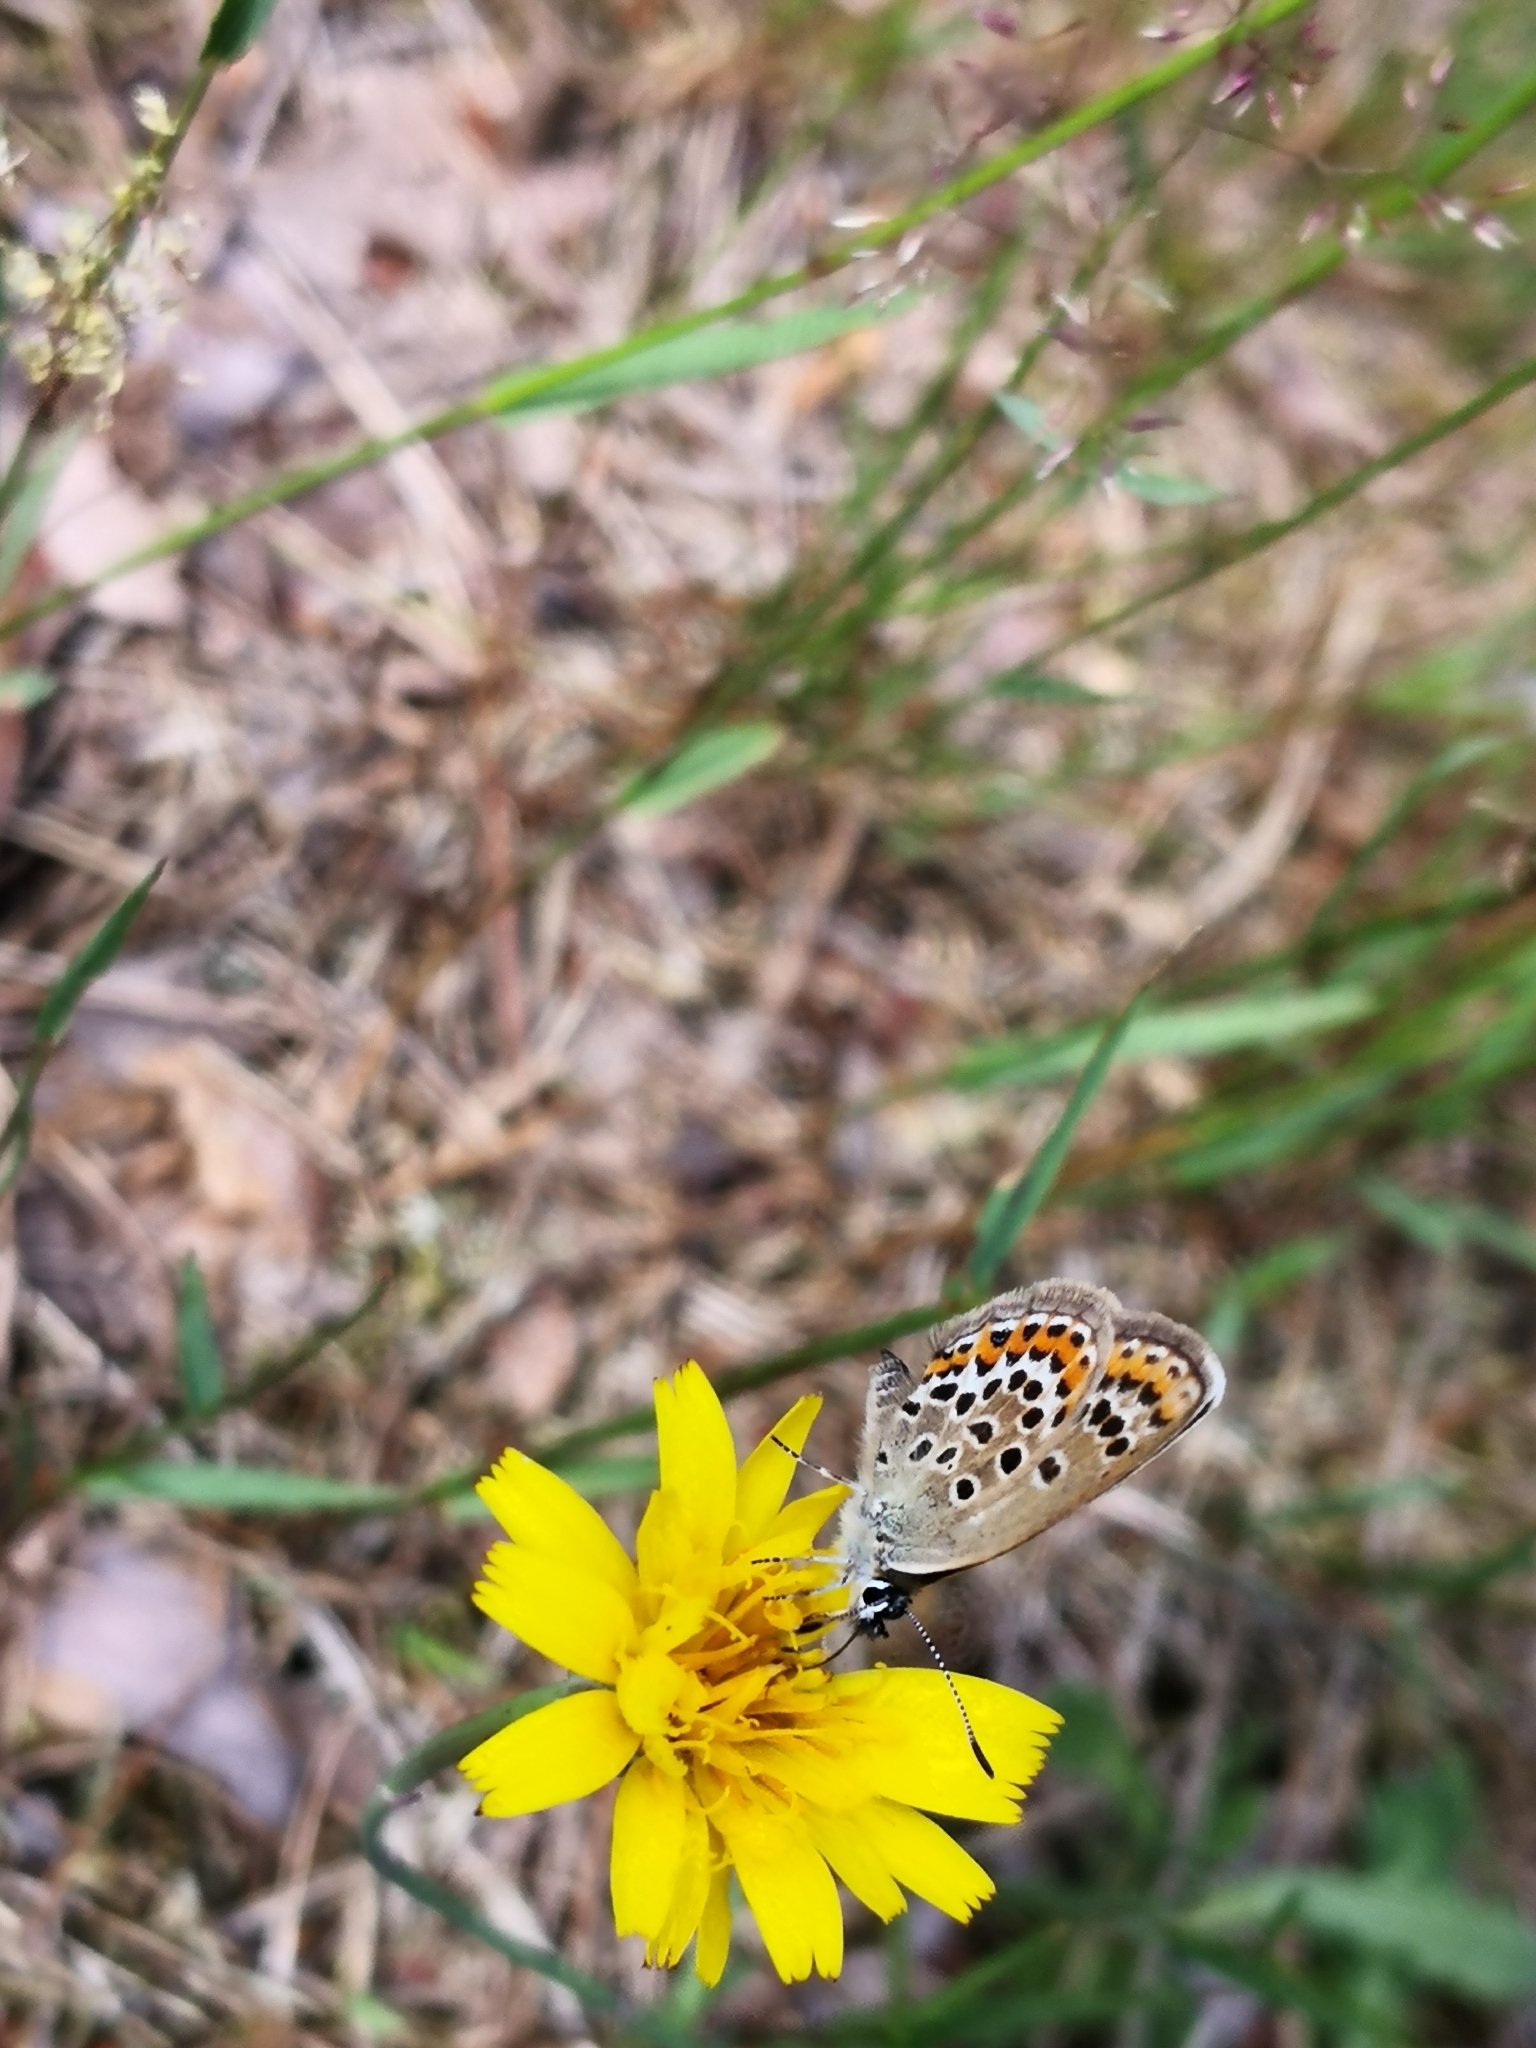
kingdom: Animalia
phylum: Arthropoda
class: Insecta
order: Lepidoptera
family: Lycaenidae
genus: Plebejus
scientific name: Plebejus argus
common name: Silver-studded blue
